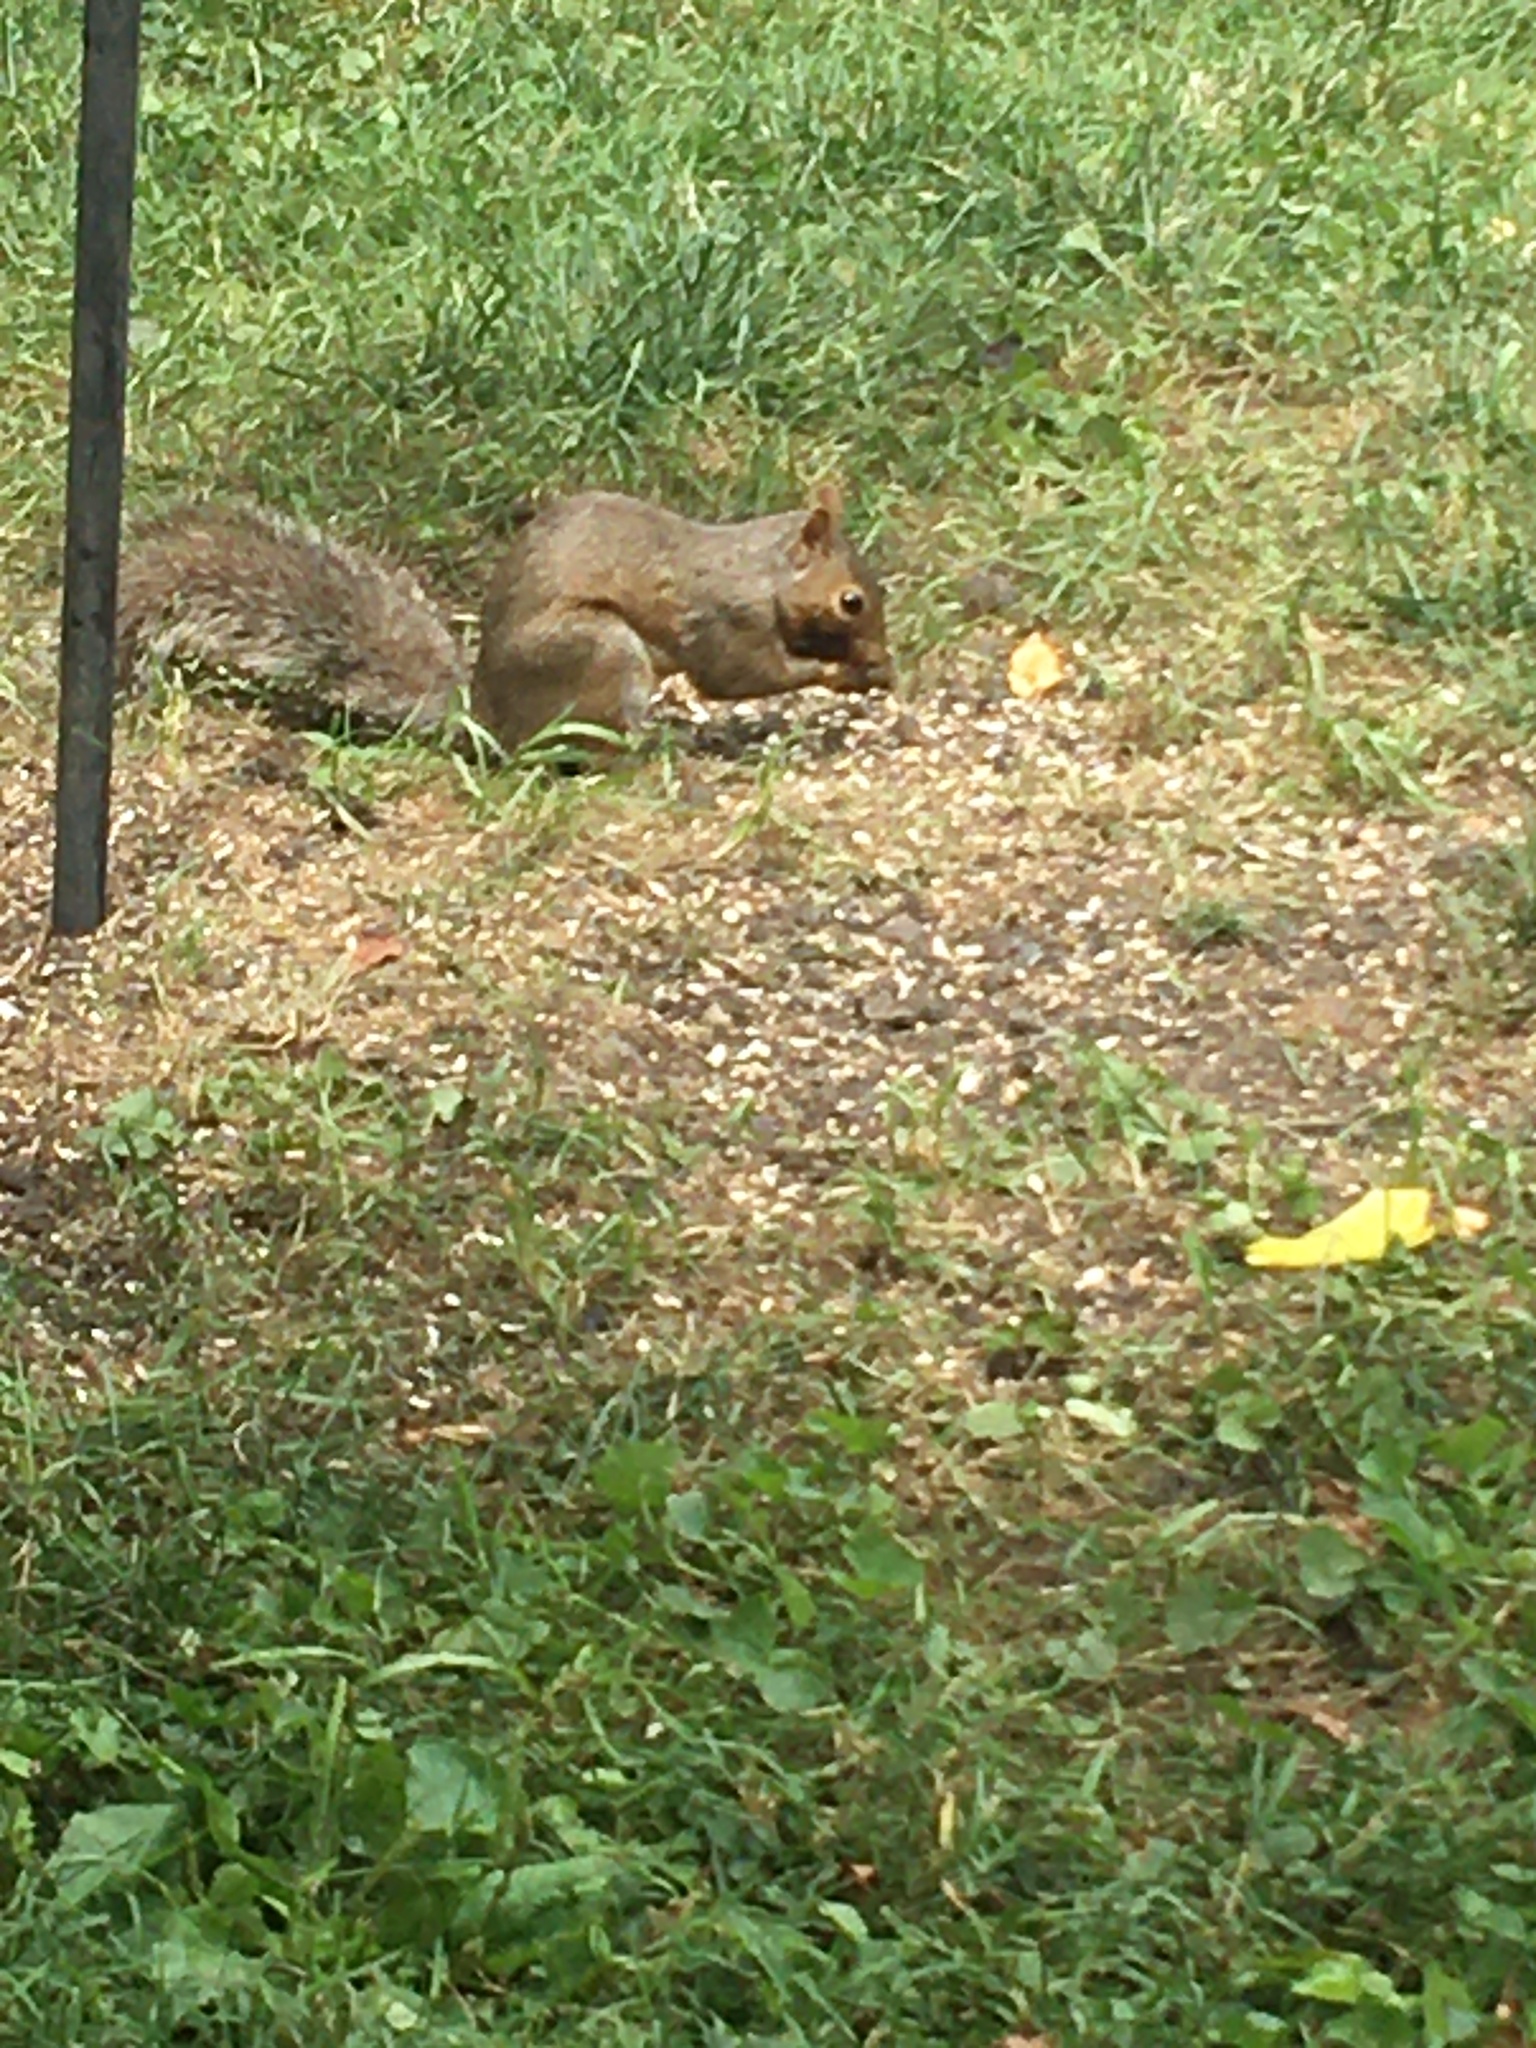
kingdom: Animalia
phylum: Chordata
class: Mammalia
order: Rodentia
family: Sciuridae
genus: Sciurus
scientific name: Sciurus carolinensis
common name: Eastern gray squirrel
